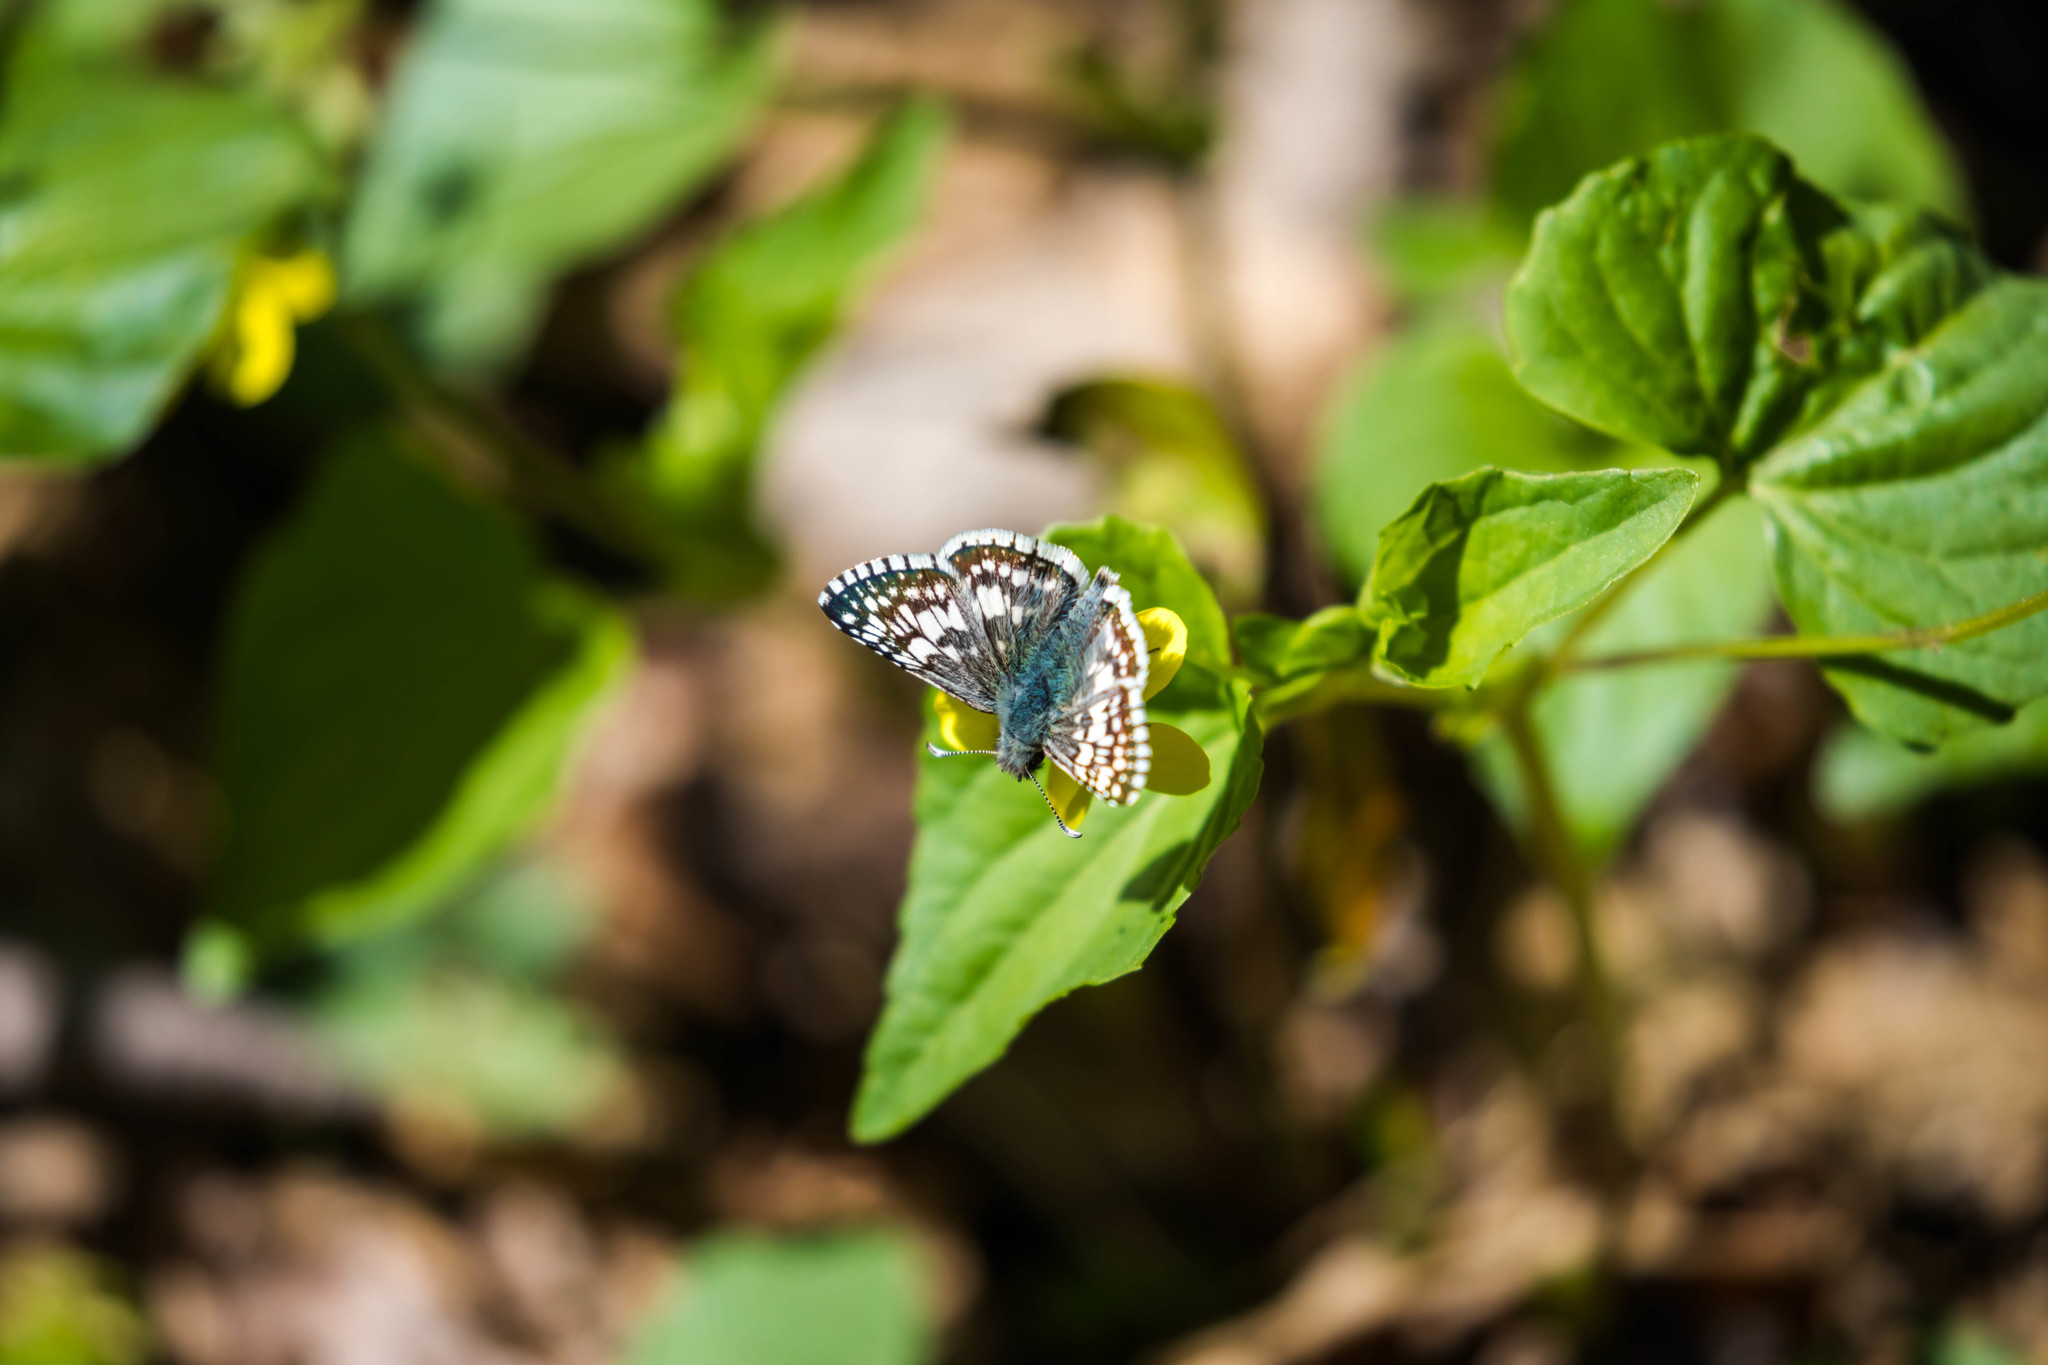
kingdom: Animalia
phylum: Arthropoda
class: Insecta
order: Lepidoptera
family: Hesperiidae
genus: Burnsius
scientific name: Burnsius communis
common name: Common checkered-skipper
